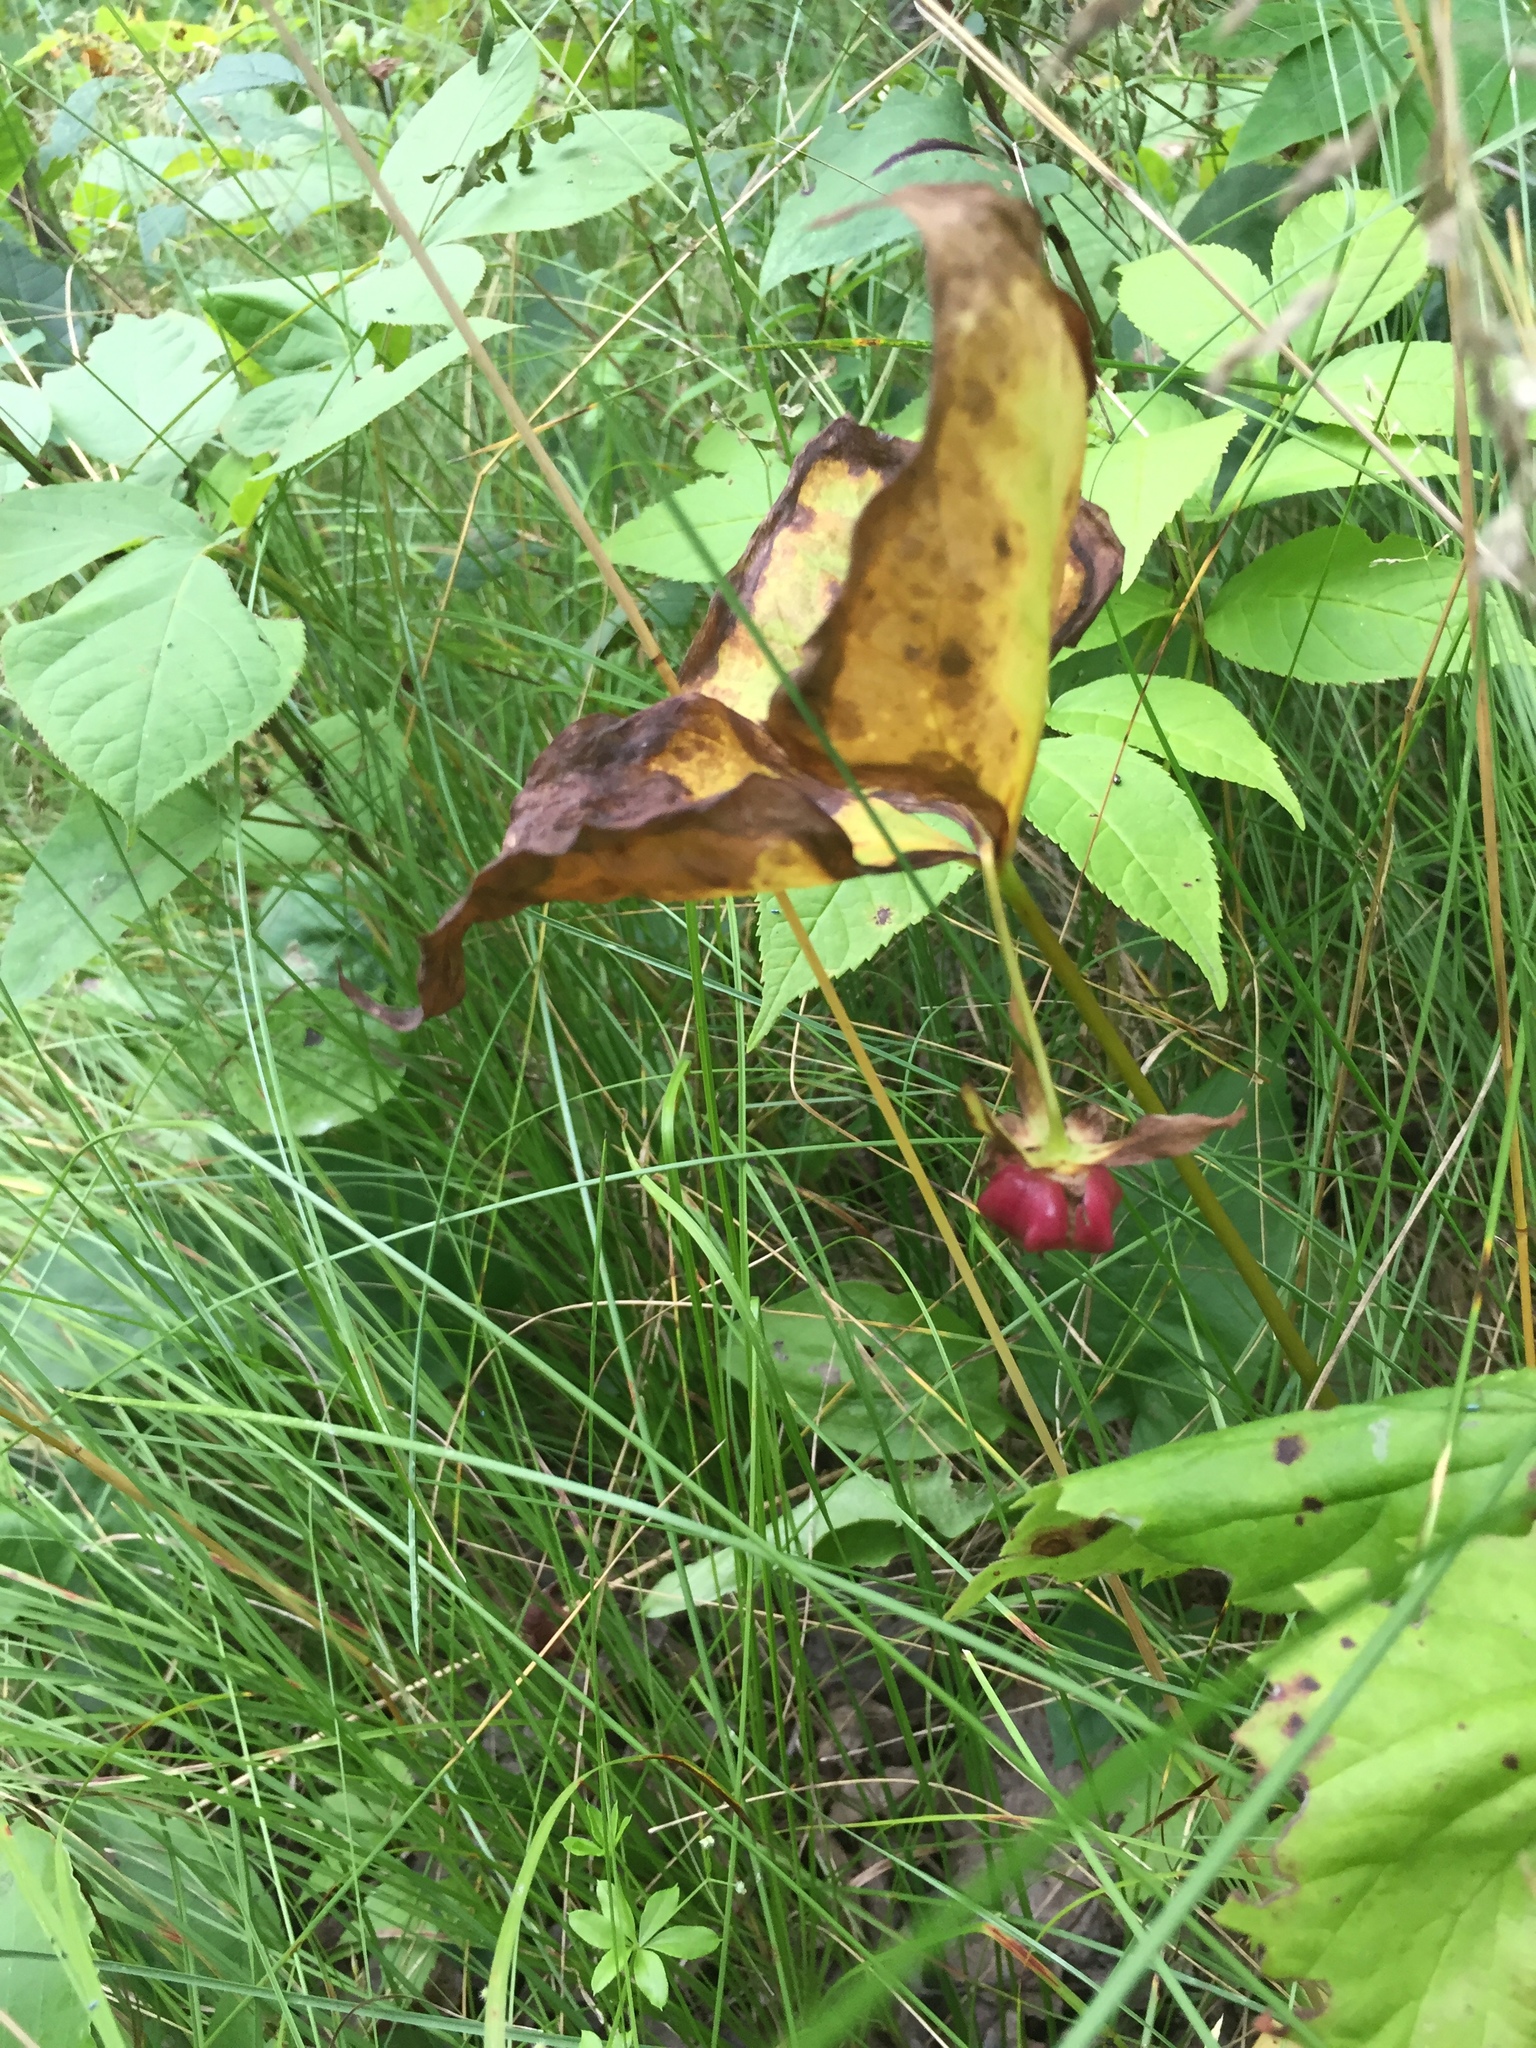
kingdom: Plantae
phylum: Tracheophyta
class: Liliopsida
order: Liliales
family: Melanthiaceae
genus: Trillium
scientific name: Trillium cernuum
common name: Nodding trillium
